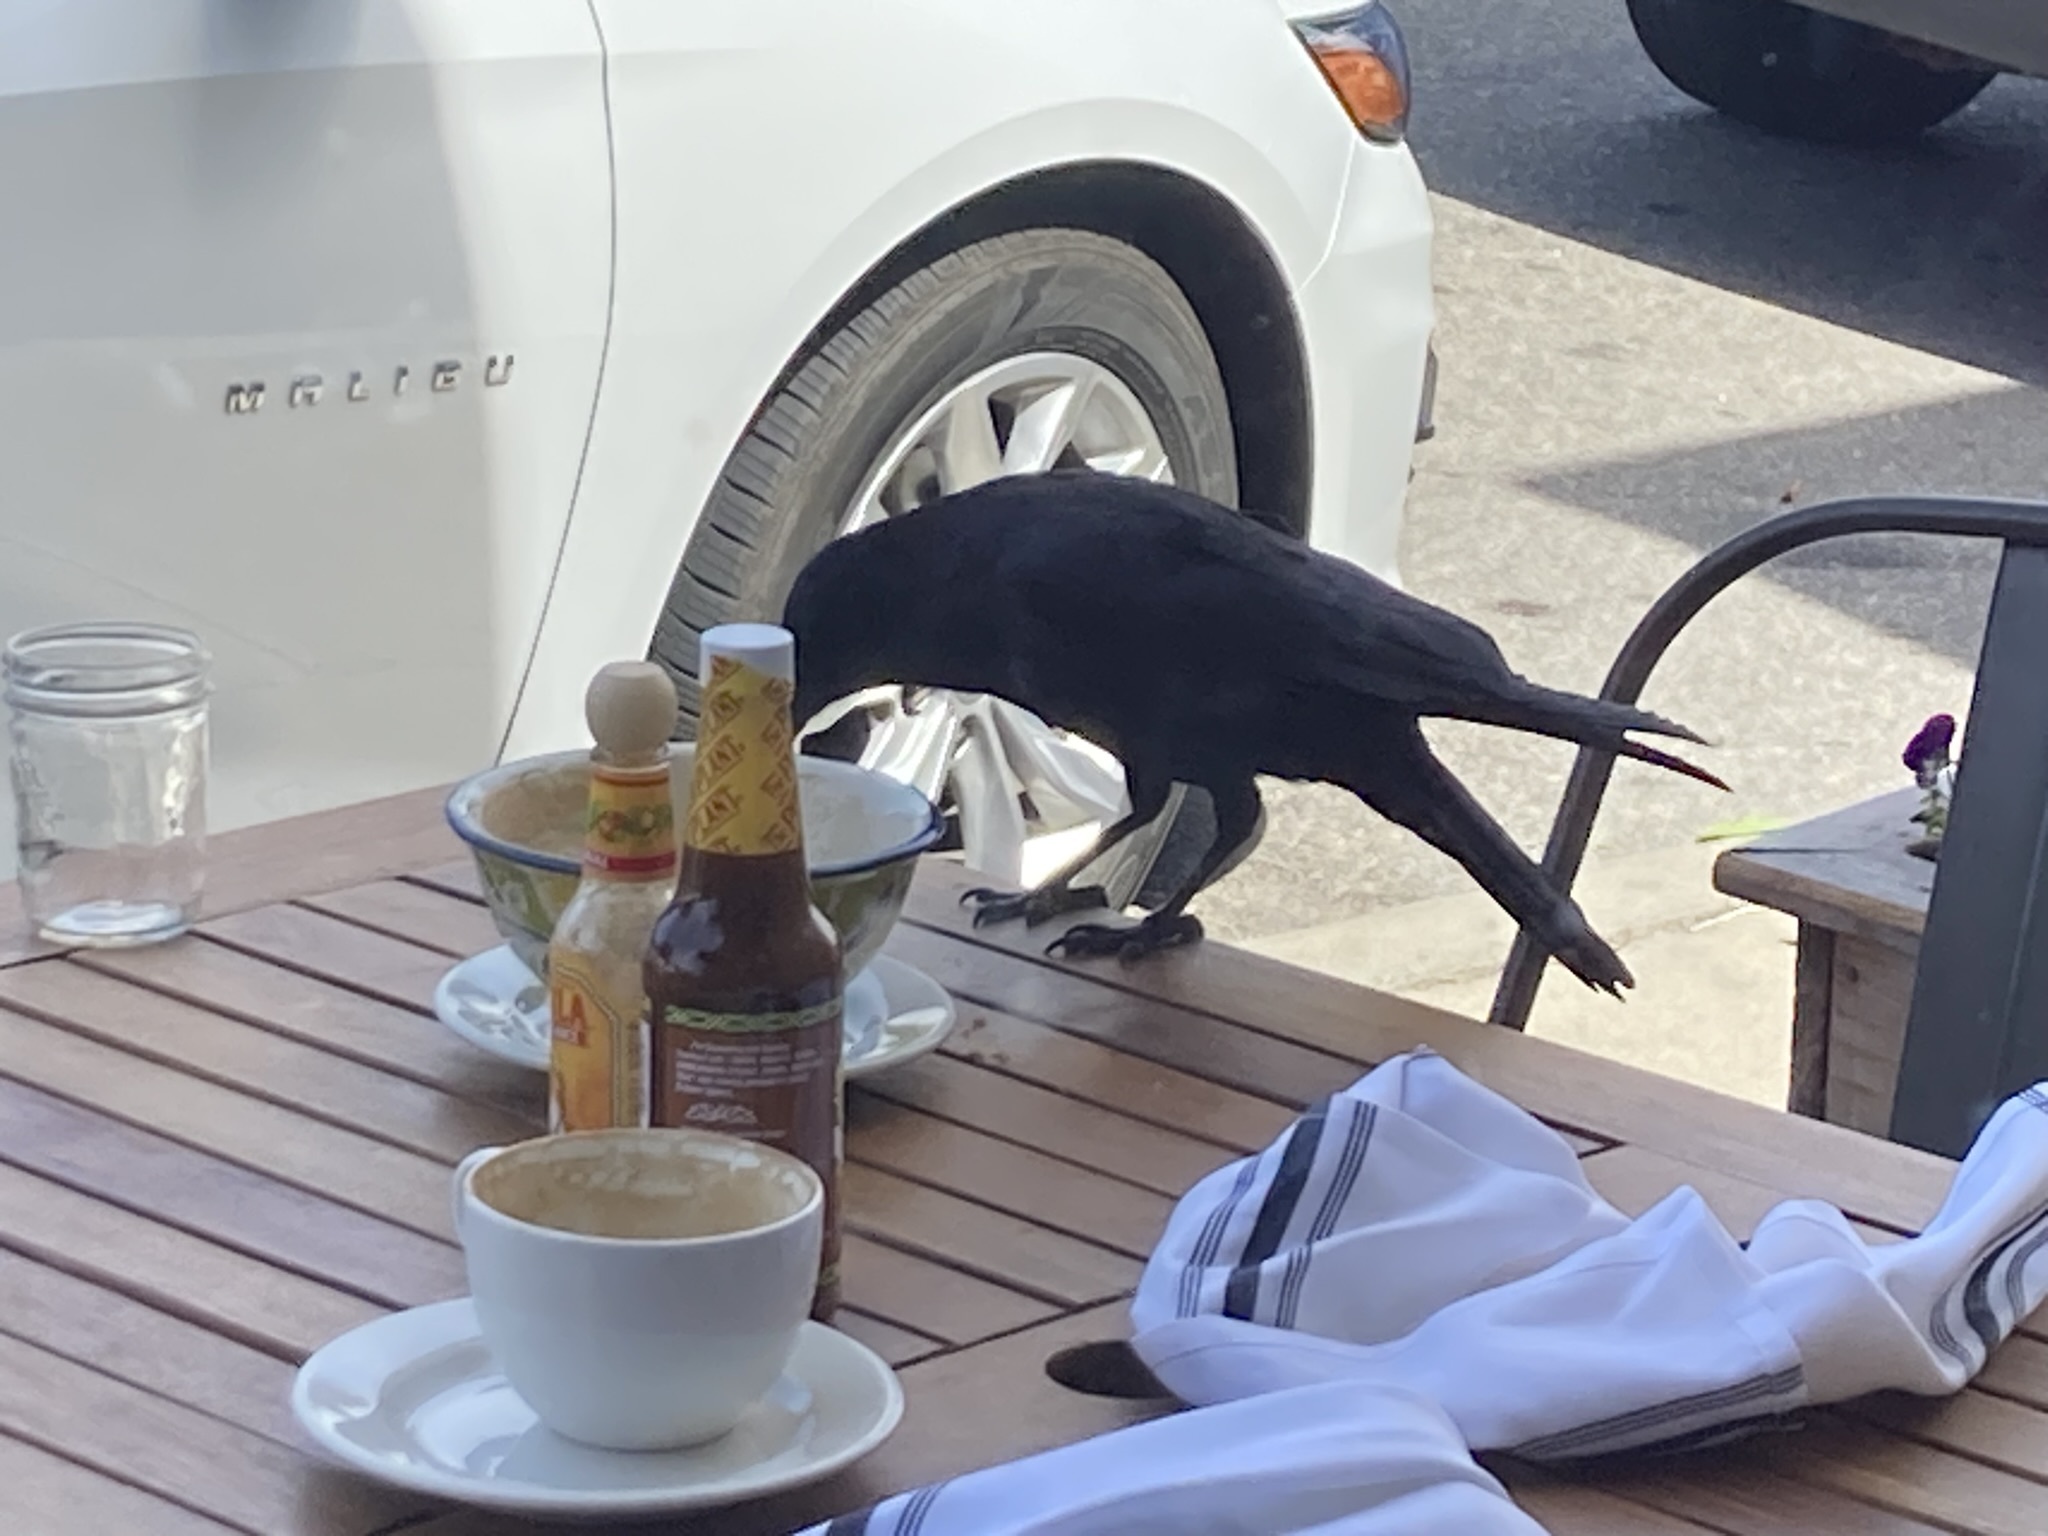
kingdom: Animalia
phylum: Chordata
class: Aves
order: Passeriformes
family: Corvidae
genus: Corvus
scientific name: Corvus brachyrhynchos
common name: American crow
